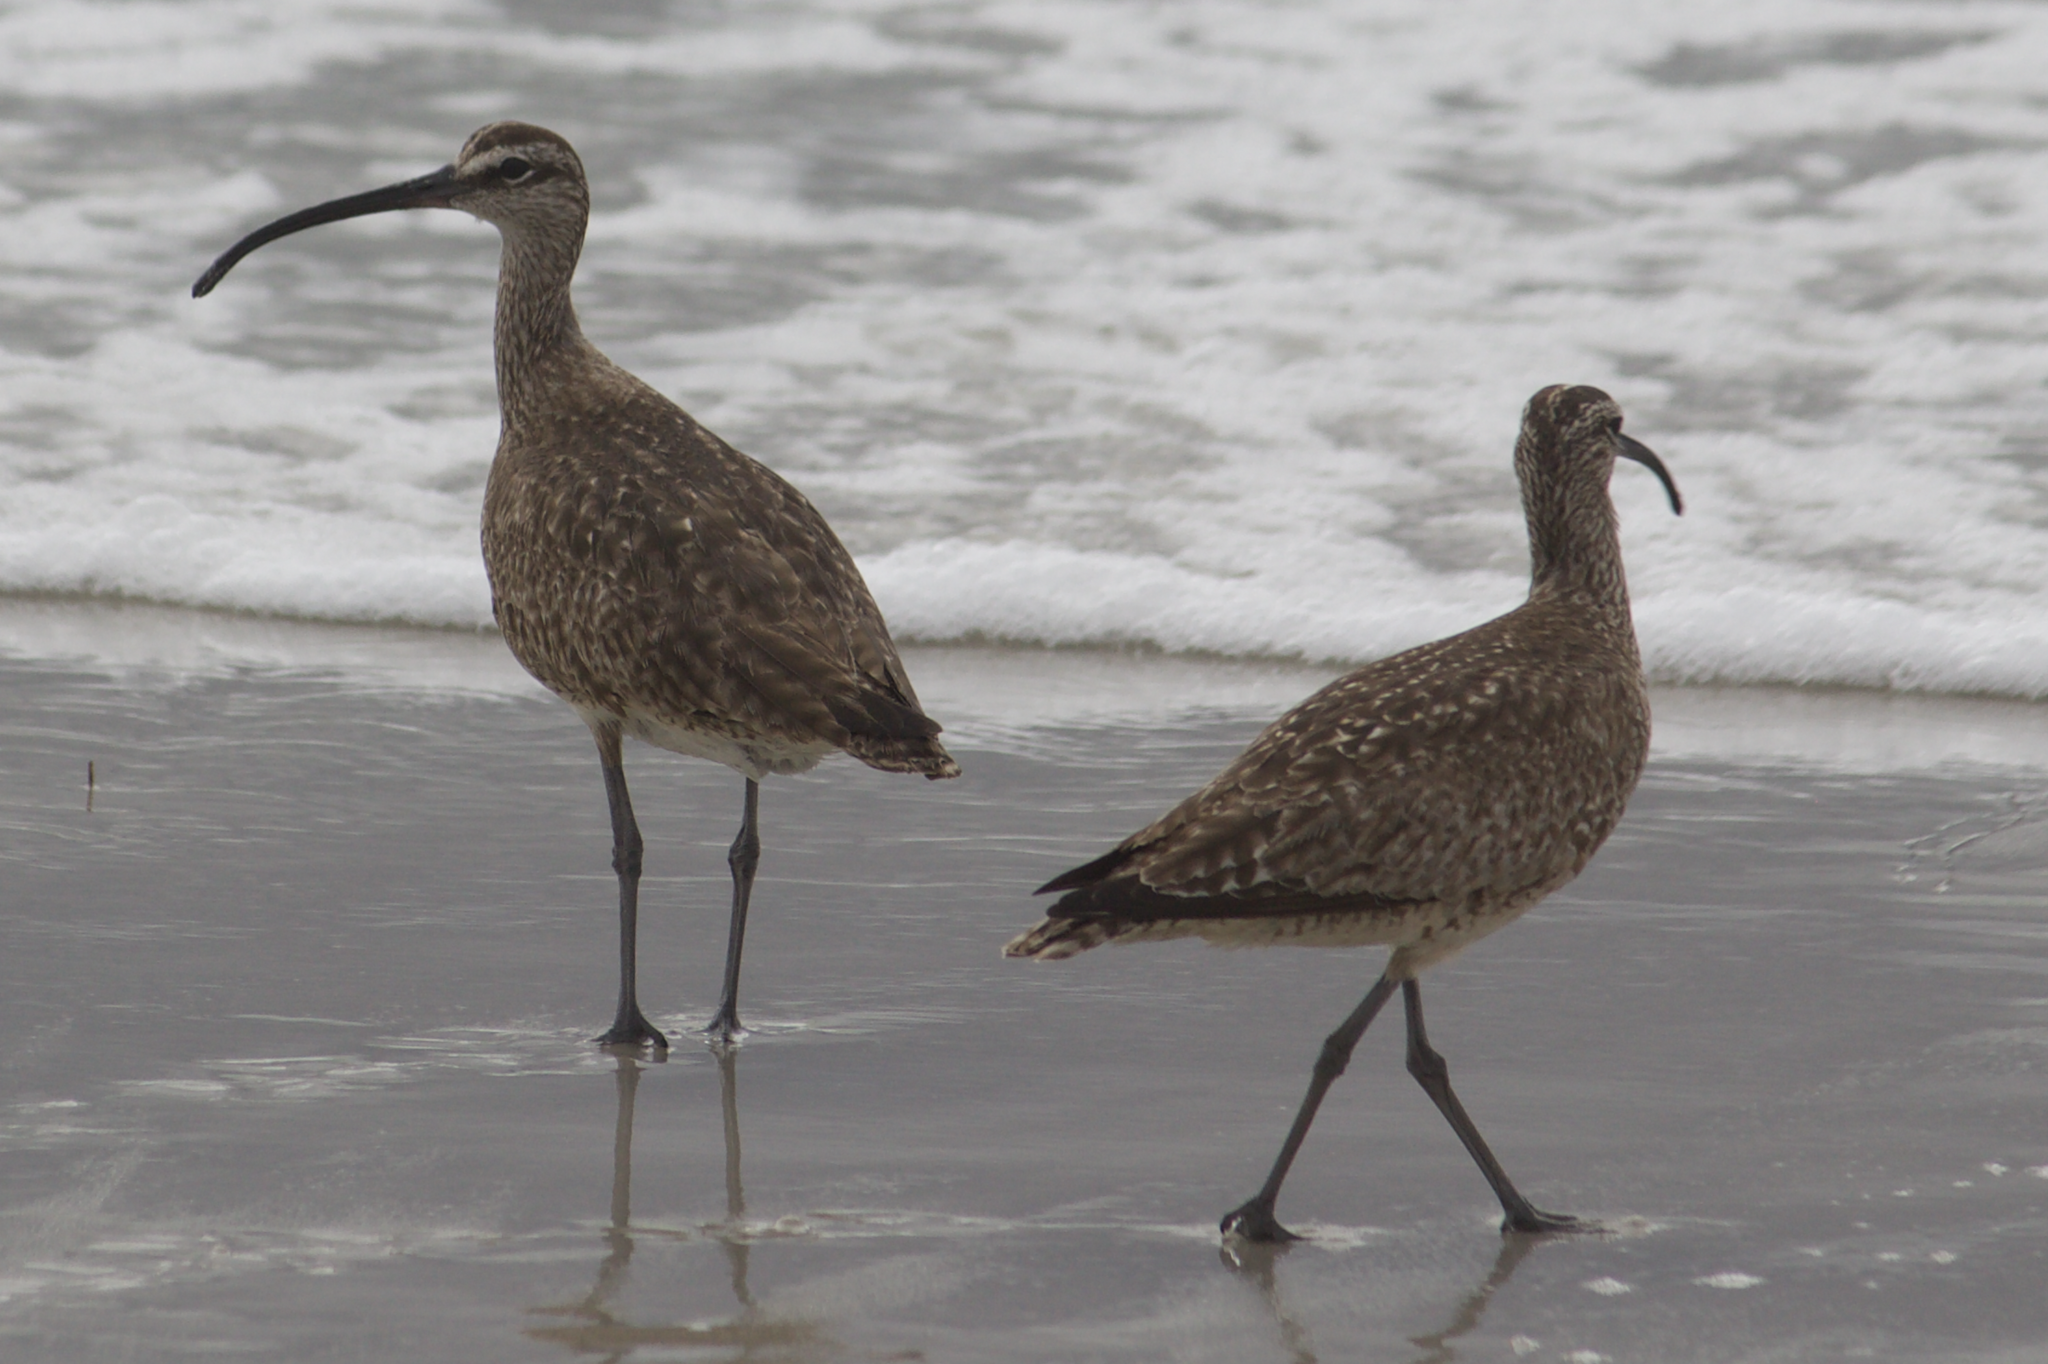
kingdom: Animalia
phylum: Chordata
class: Aves
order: Charadriiformes
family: Scolopacidae
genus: Numenius
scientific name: Numenius phaeopus
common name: Whimbrel
